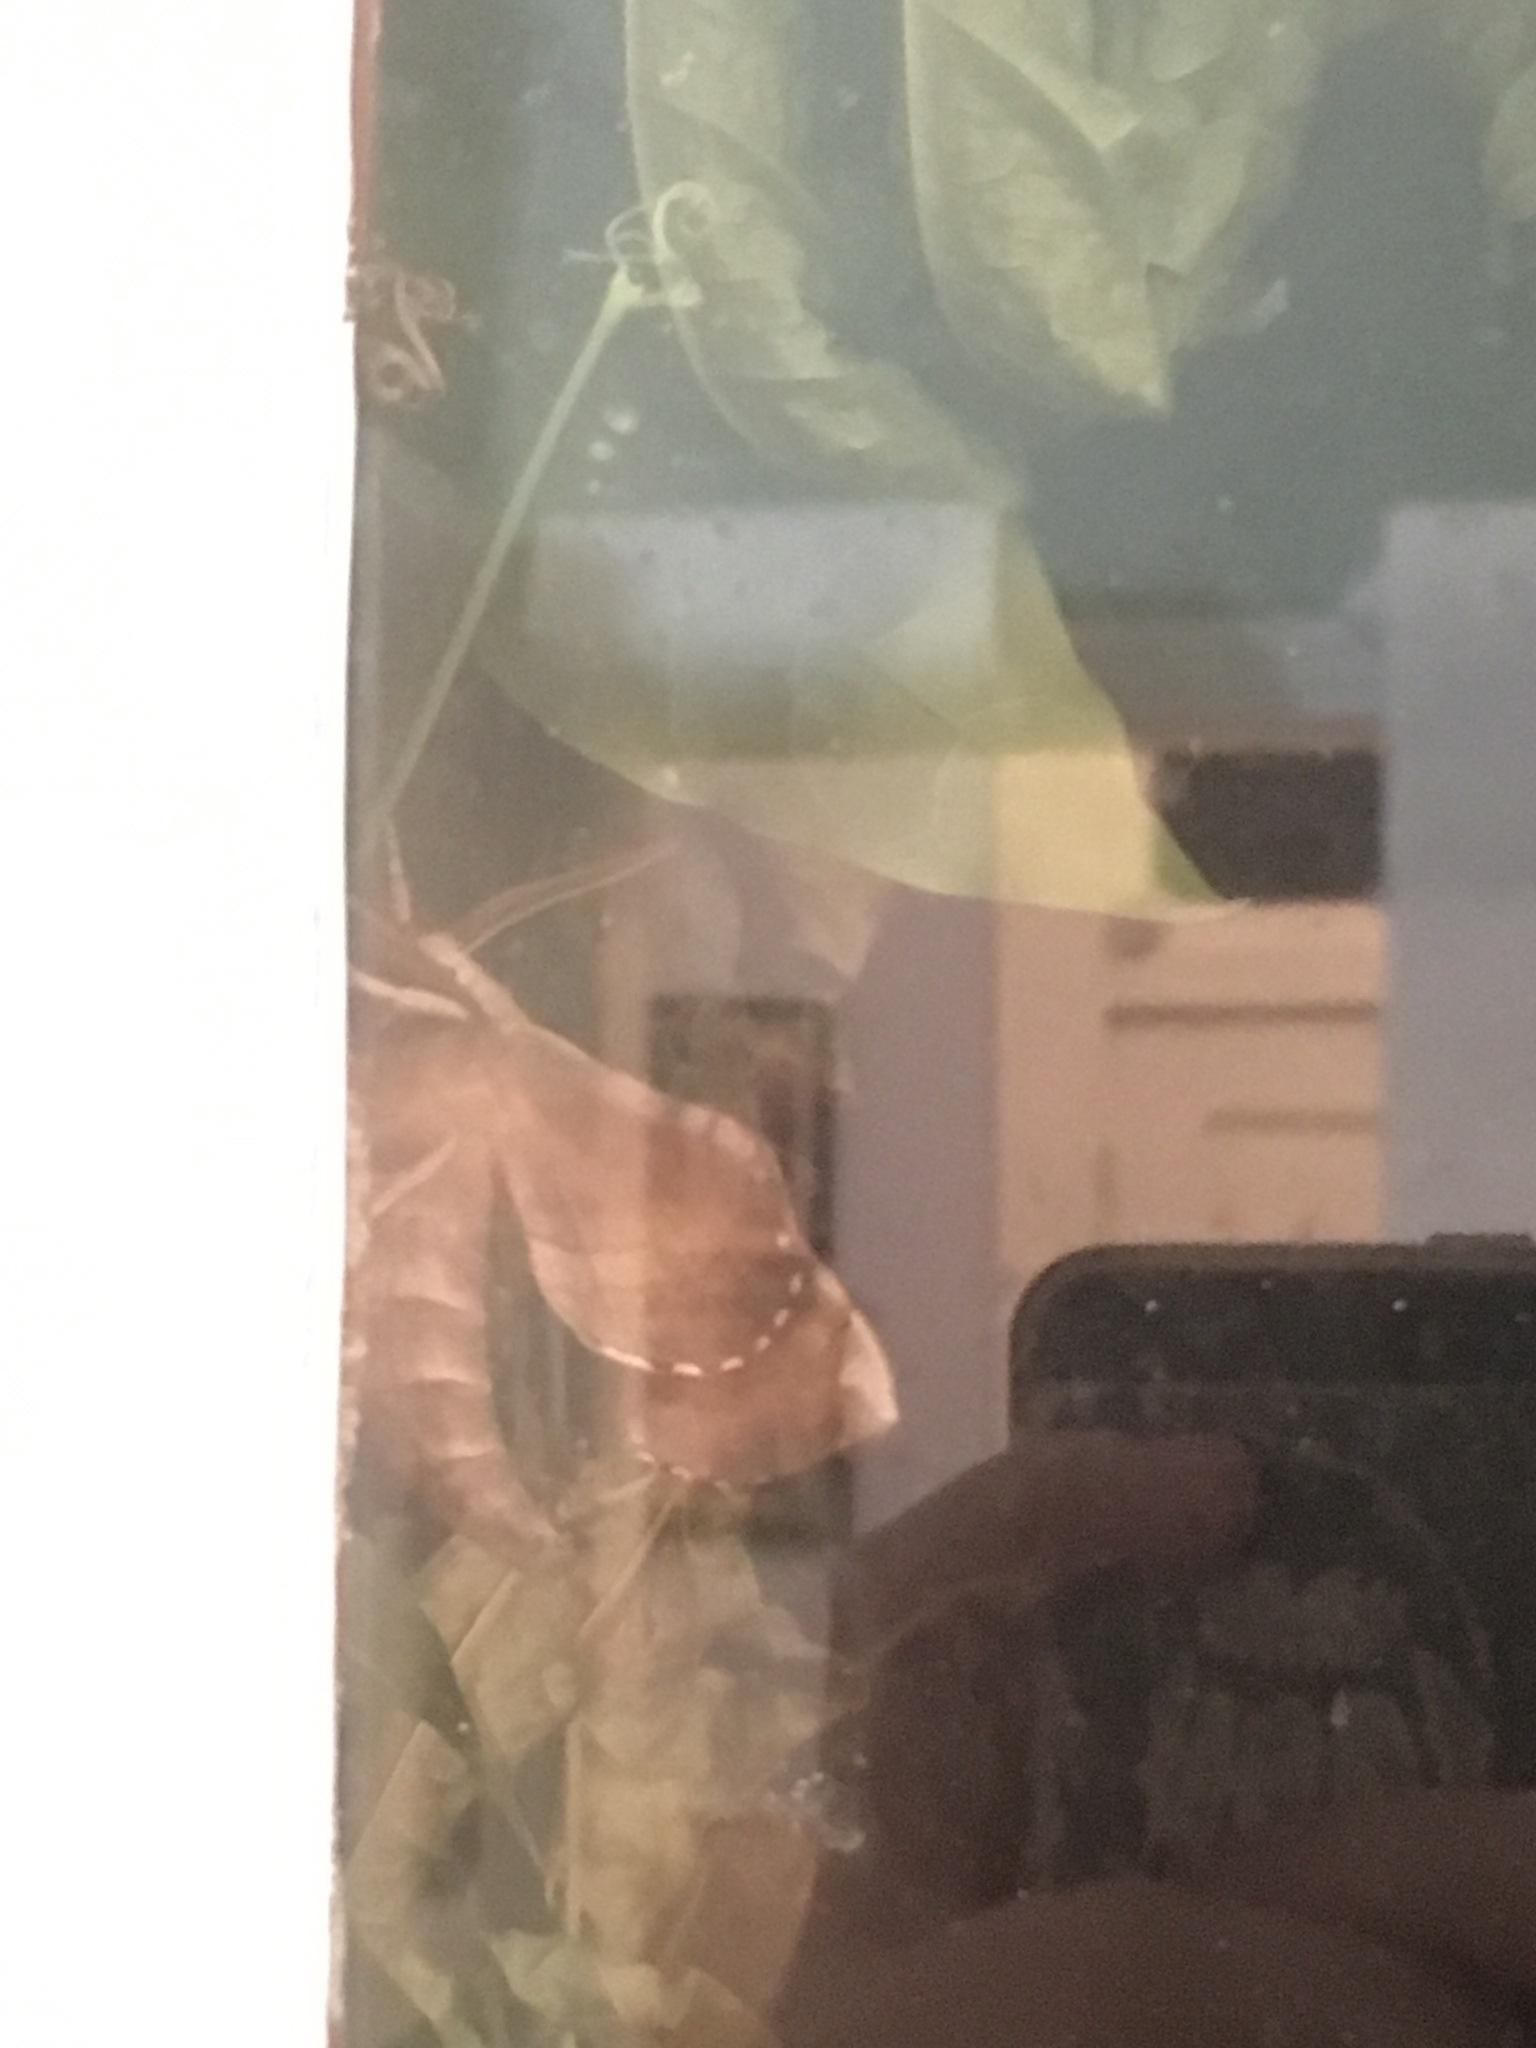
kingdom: Animalia
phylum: Arthropoda
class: Insecta
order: Lepidoptera
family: Sphingidae
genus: Amorpha
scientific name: Amorpha juglandis
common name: Walnut sphinx
